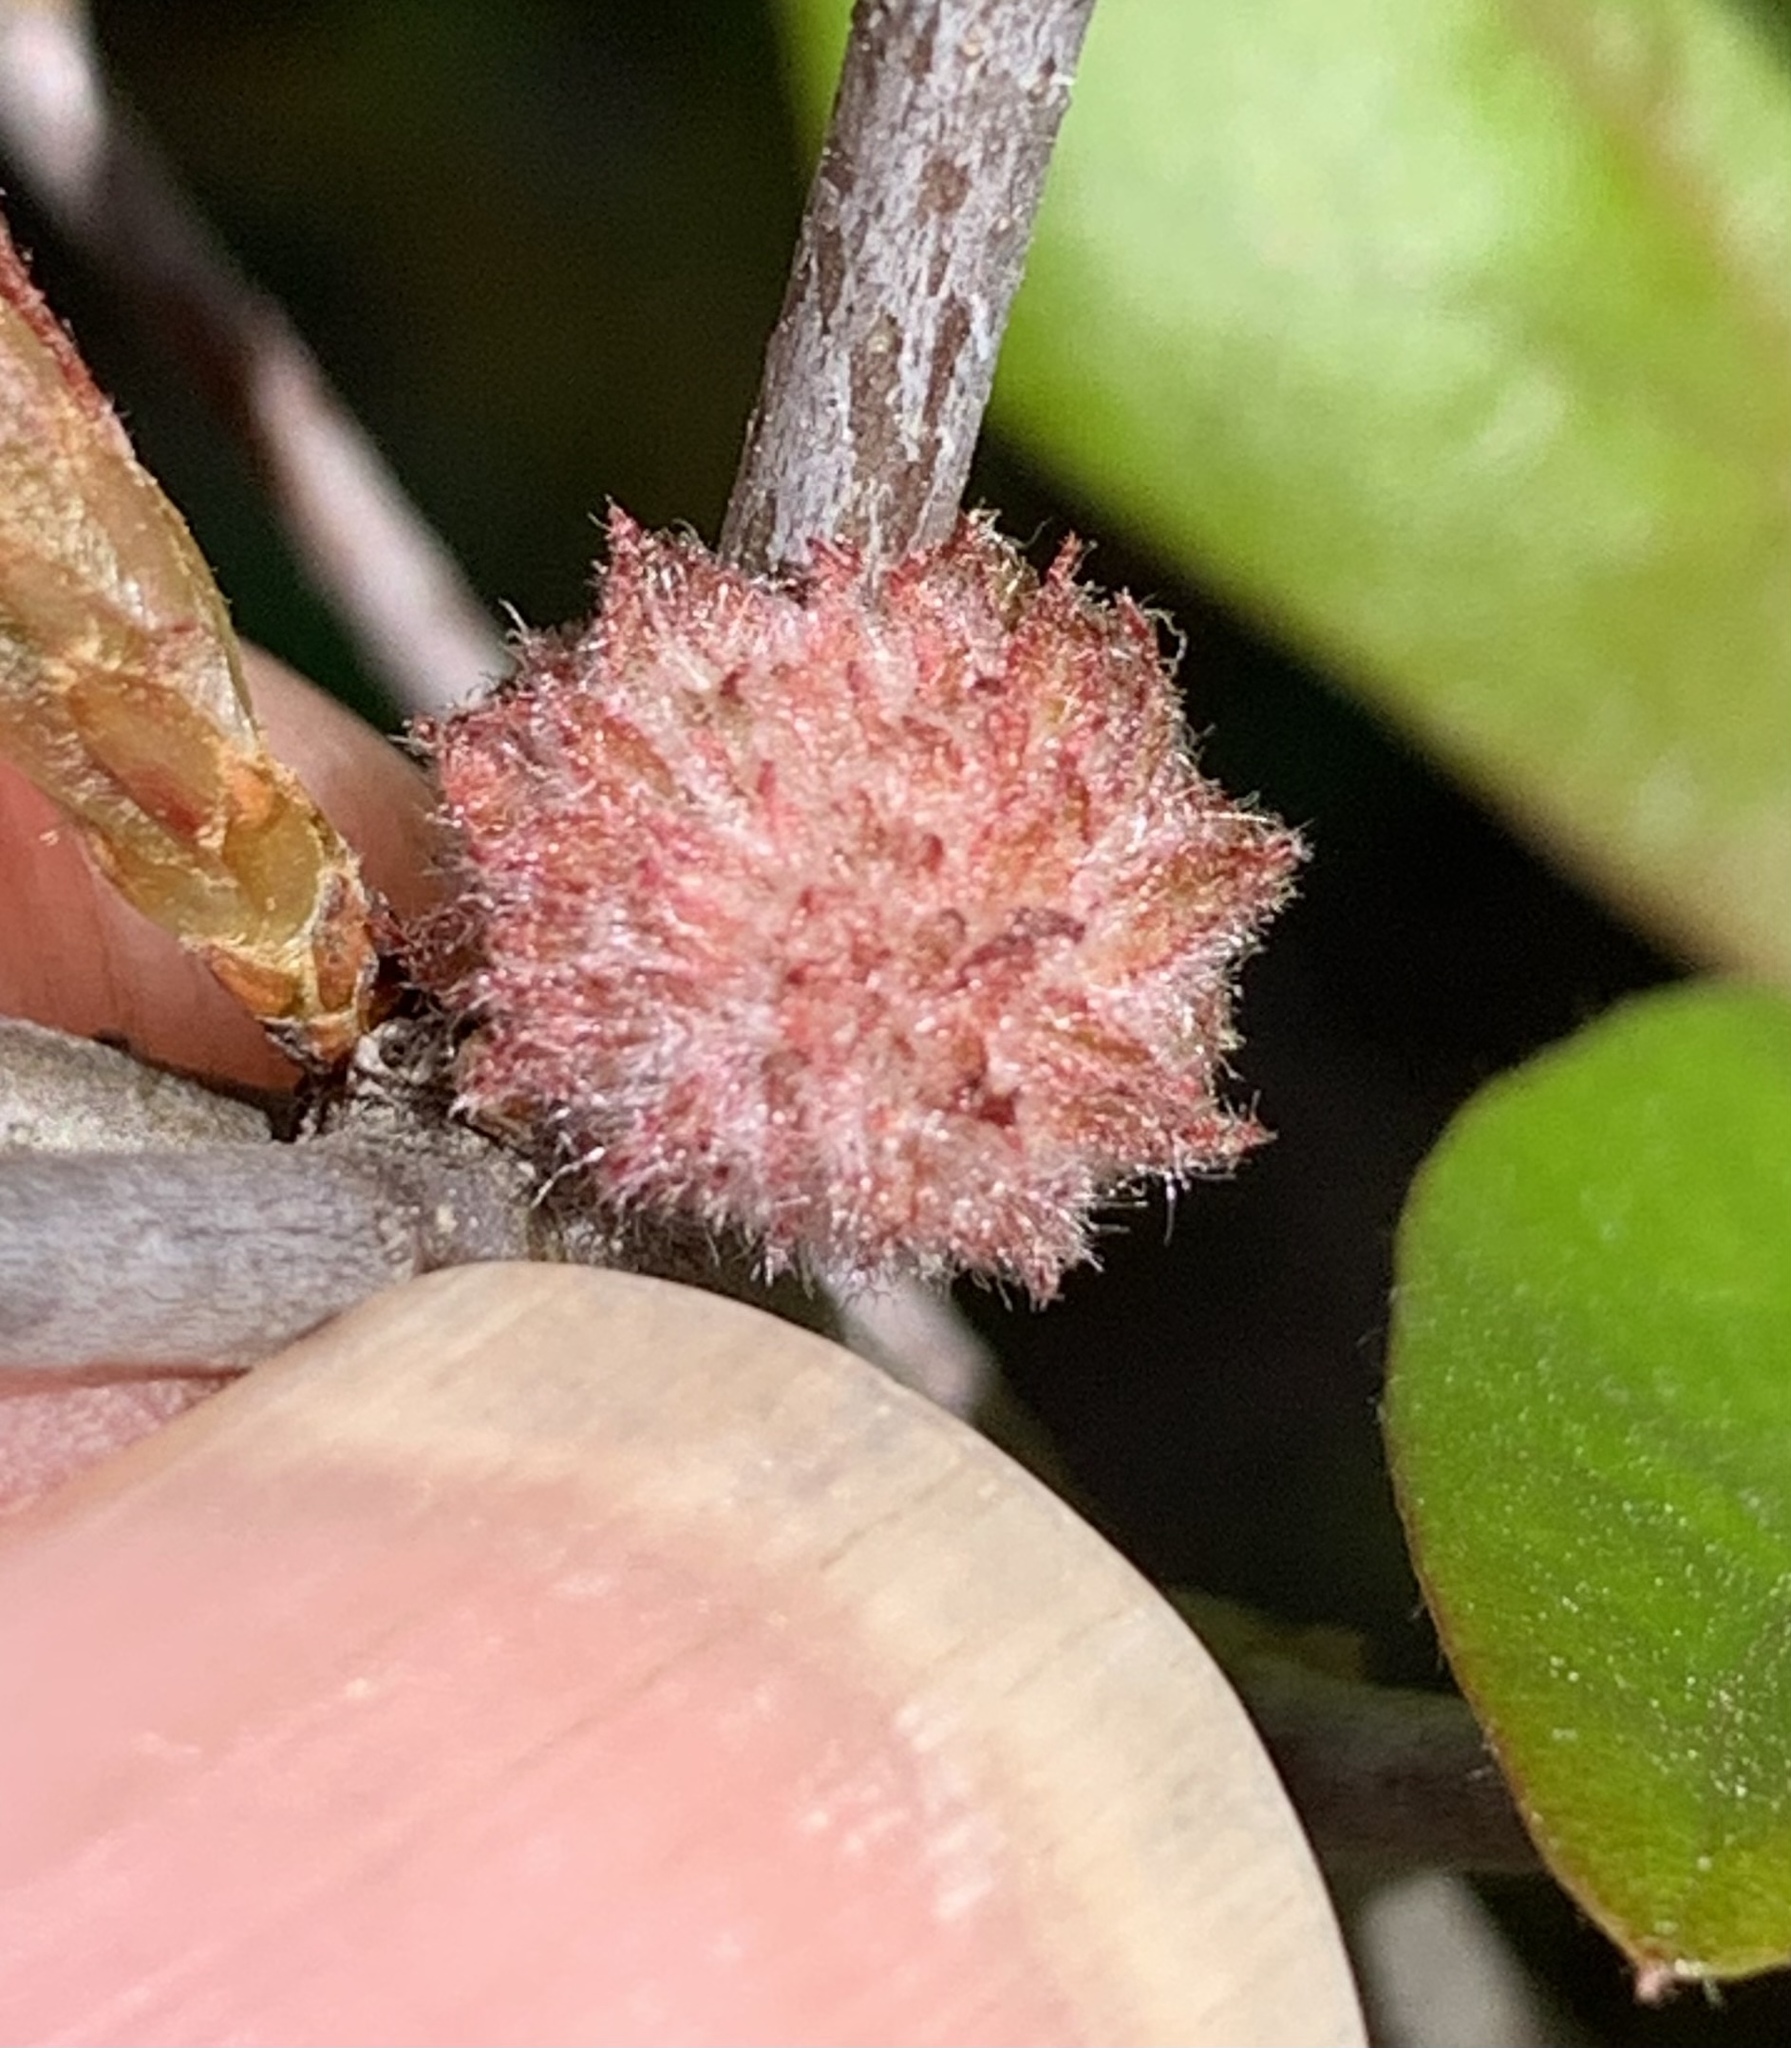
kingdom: Animalia
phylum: Arthropoda
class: Insecta
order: Hymenoptera
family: Cynipidae
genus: Dryocosmus
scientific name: Dryocosmus
